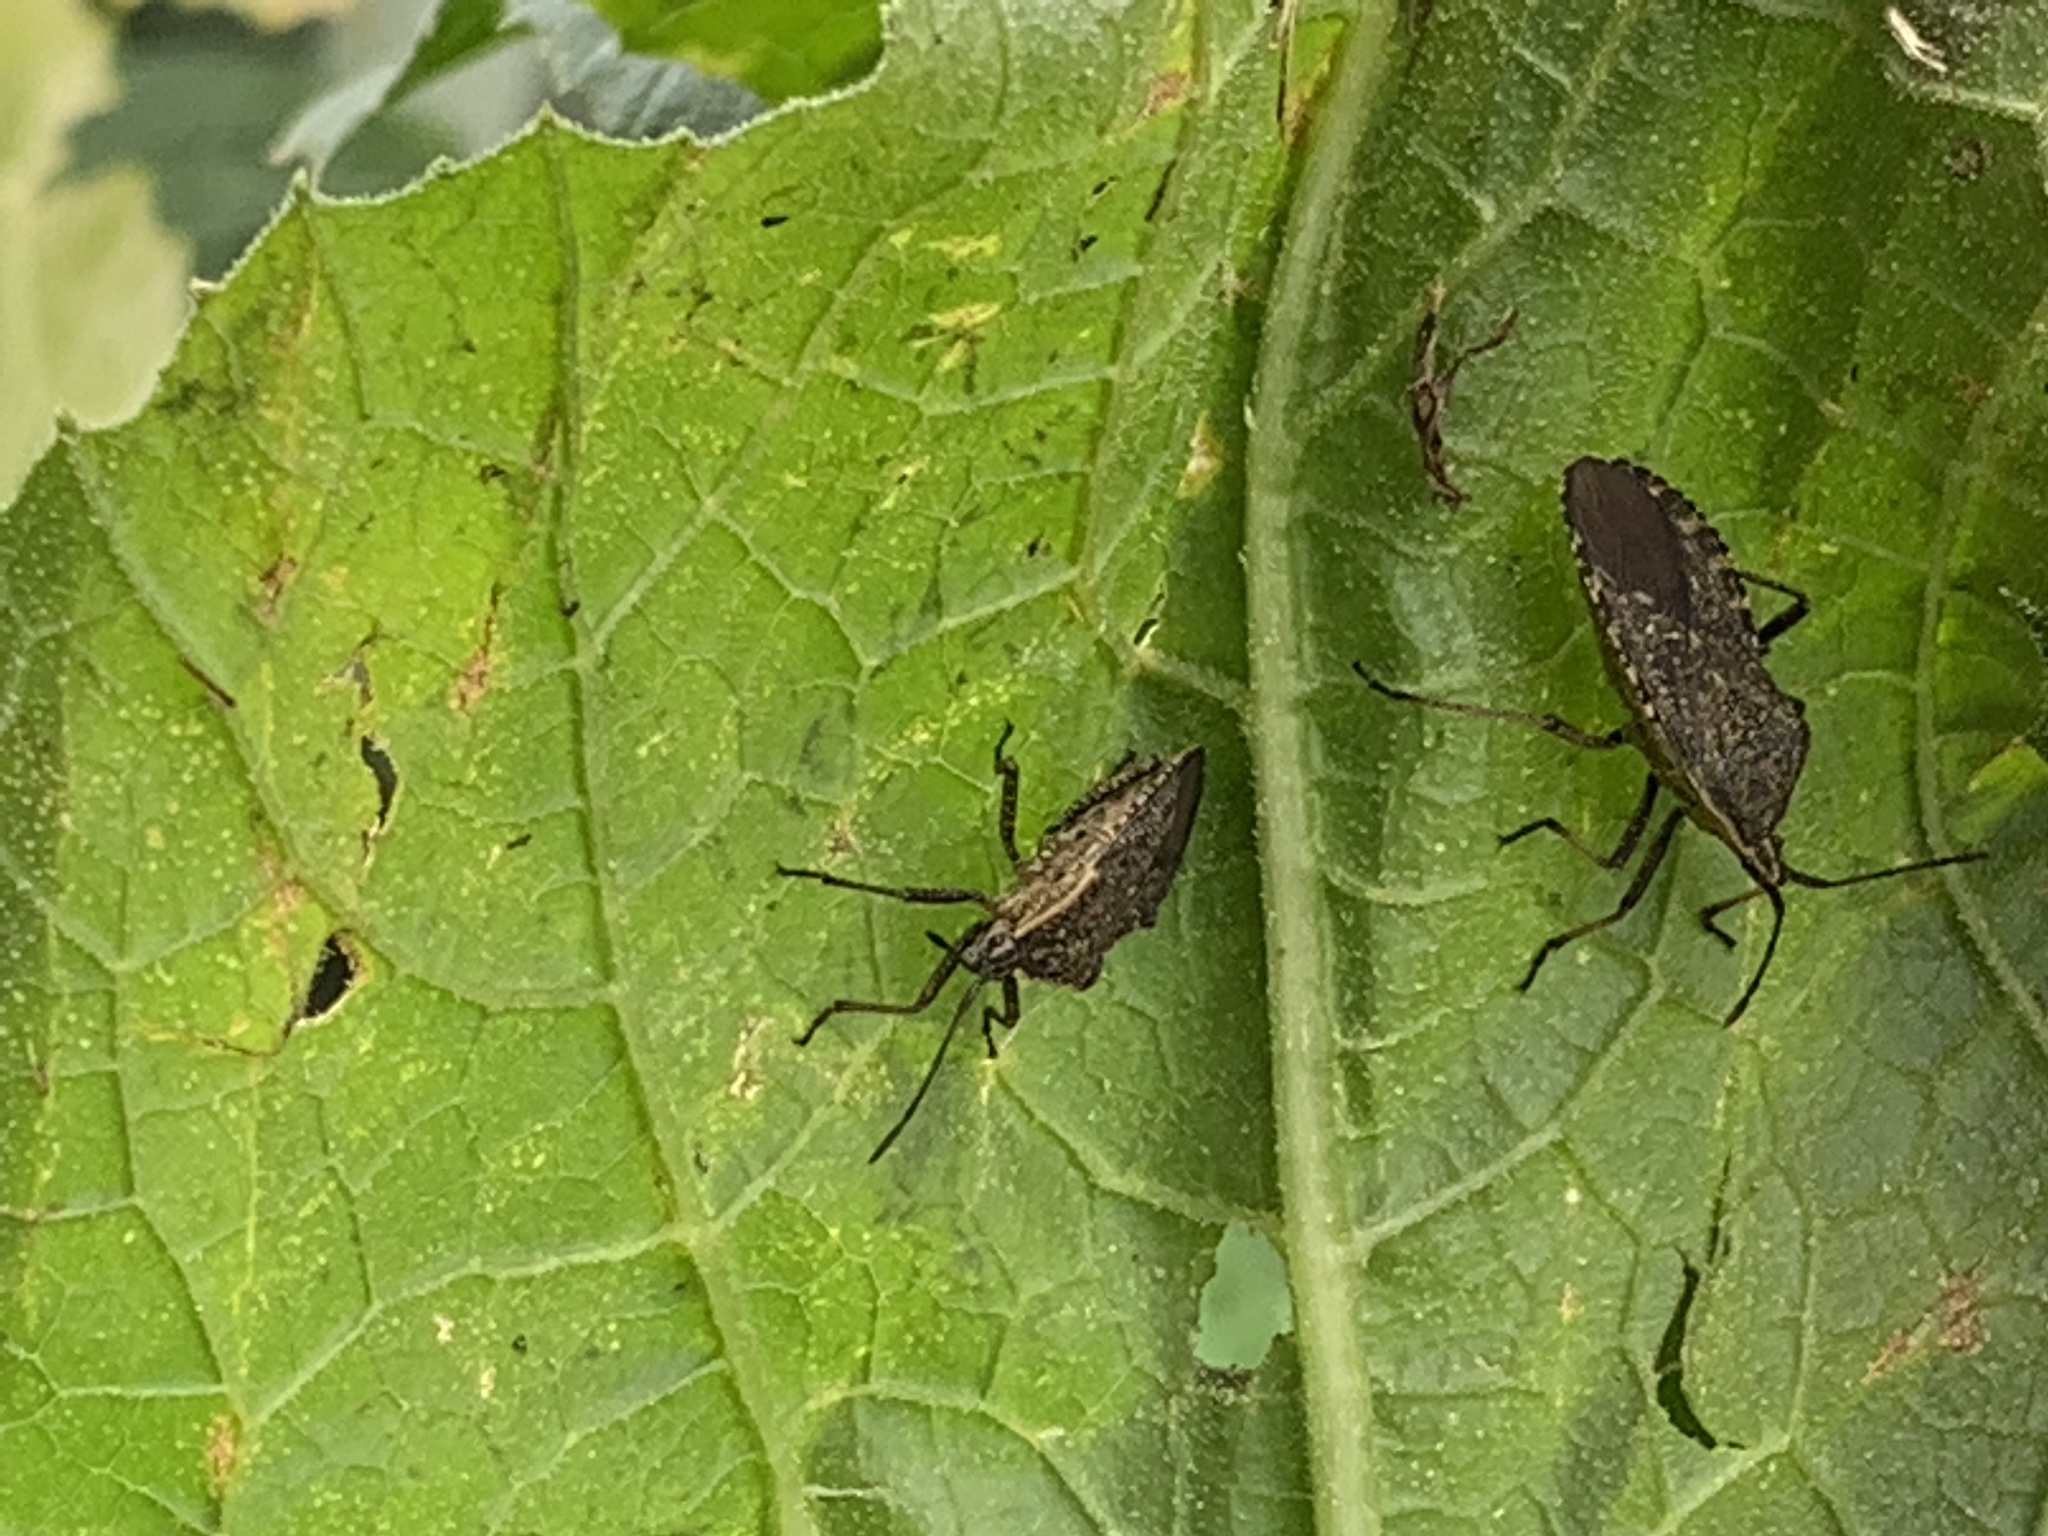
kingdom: Animalia
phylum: Arthropoda
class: Insecta
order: Hemiptera
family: Coreidae
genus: Anasa
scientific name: Anasa tristis
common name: Squash bug
